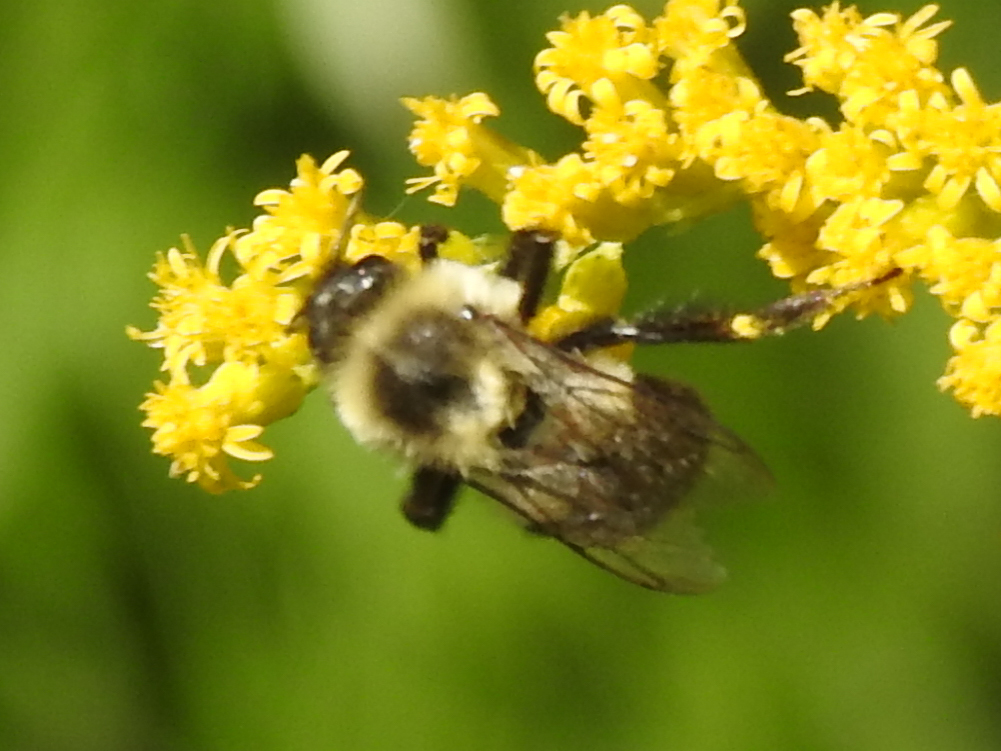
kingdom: Animalia
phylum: Arthropoda
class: Insecta
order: Hymenoptera
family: Apidae
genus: Bombus
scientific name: Bombus impatiens
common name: Common eastern bumble bee
